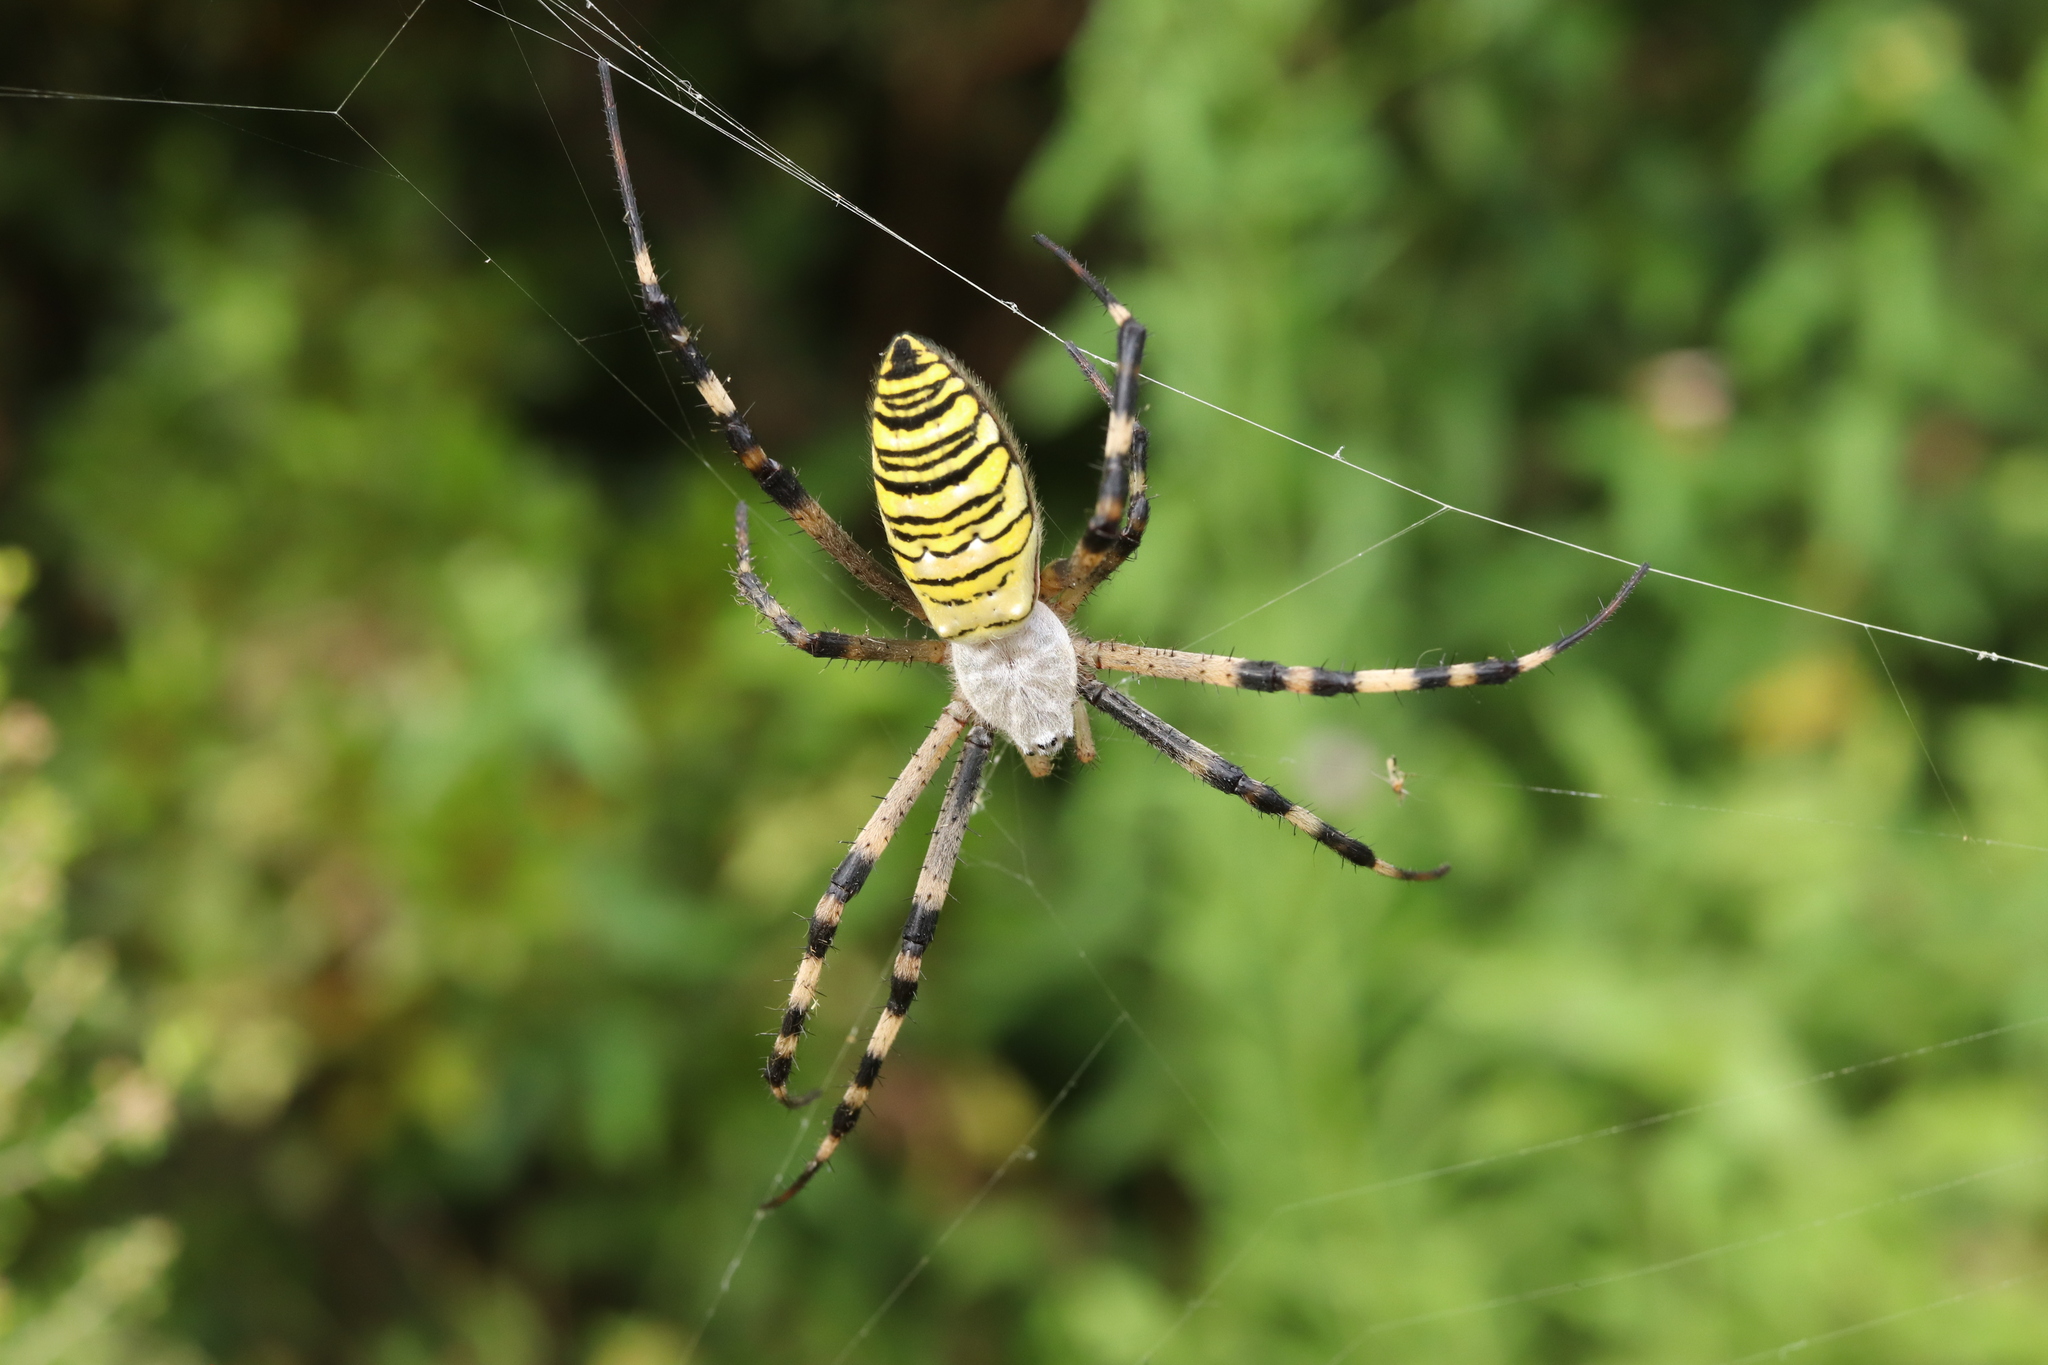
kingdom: Animalia
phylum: Arthropoda
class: Arachnida
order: Araneae
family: Araneidae
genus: Argiope
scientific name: Argiope bruennichi
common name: Wasp spider
